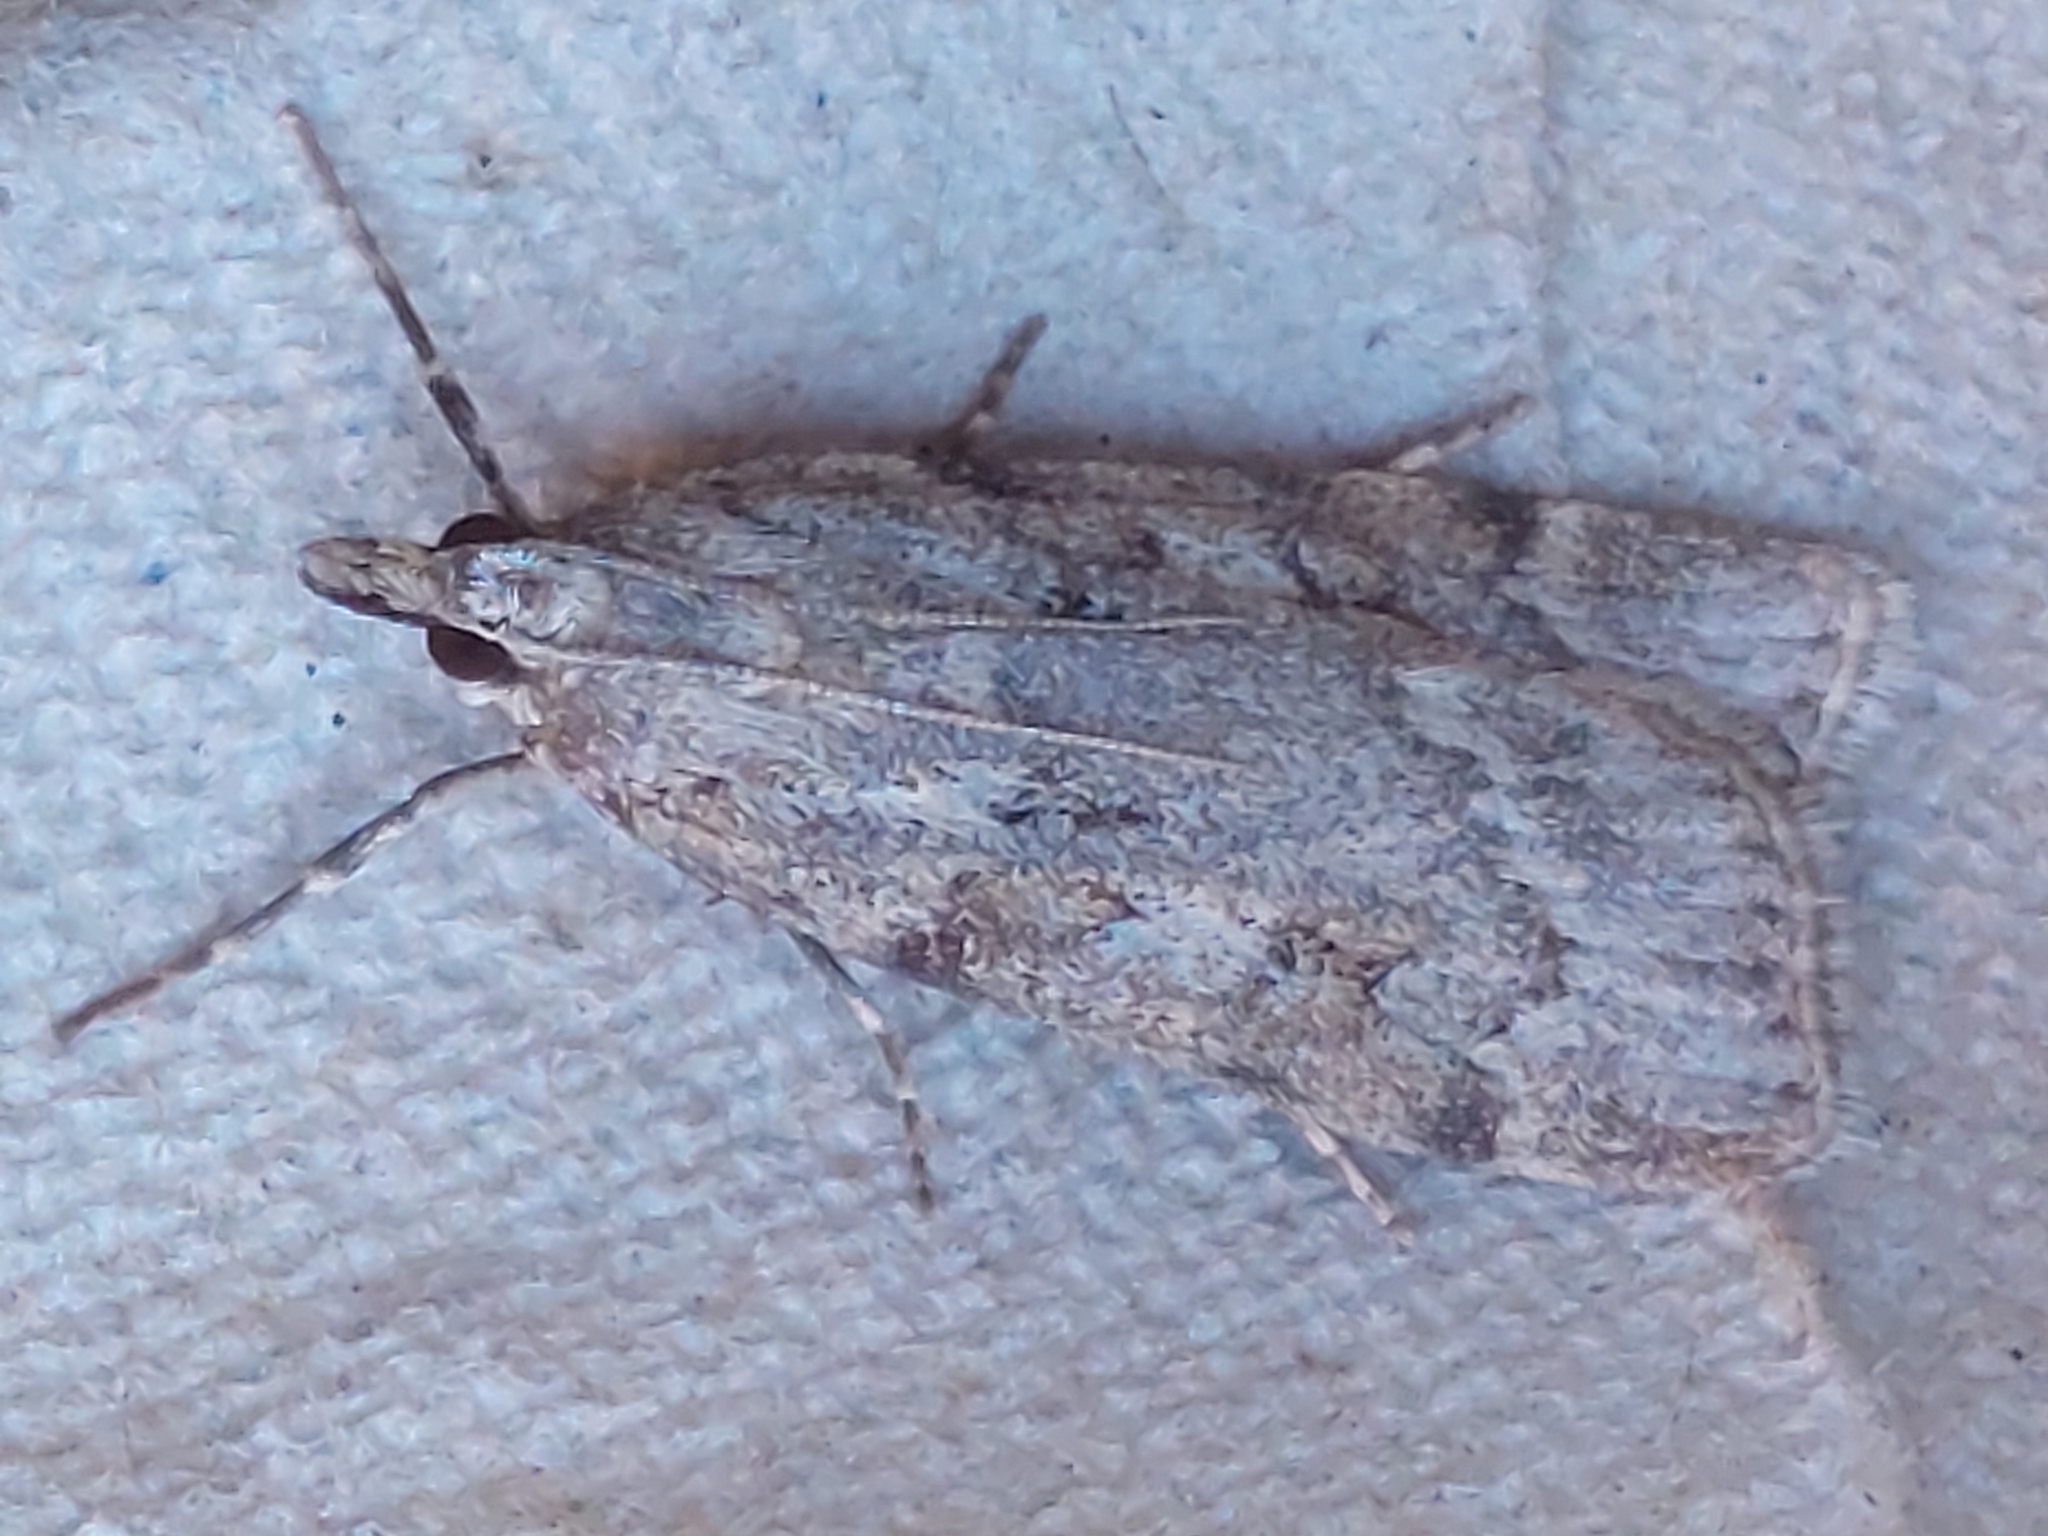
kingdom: Animalia
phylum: Arthropoda
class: Insecta
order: Lepidoptera
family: Crambidae
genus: Scoparia
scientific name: Scoparia cembrella
